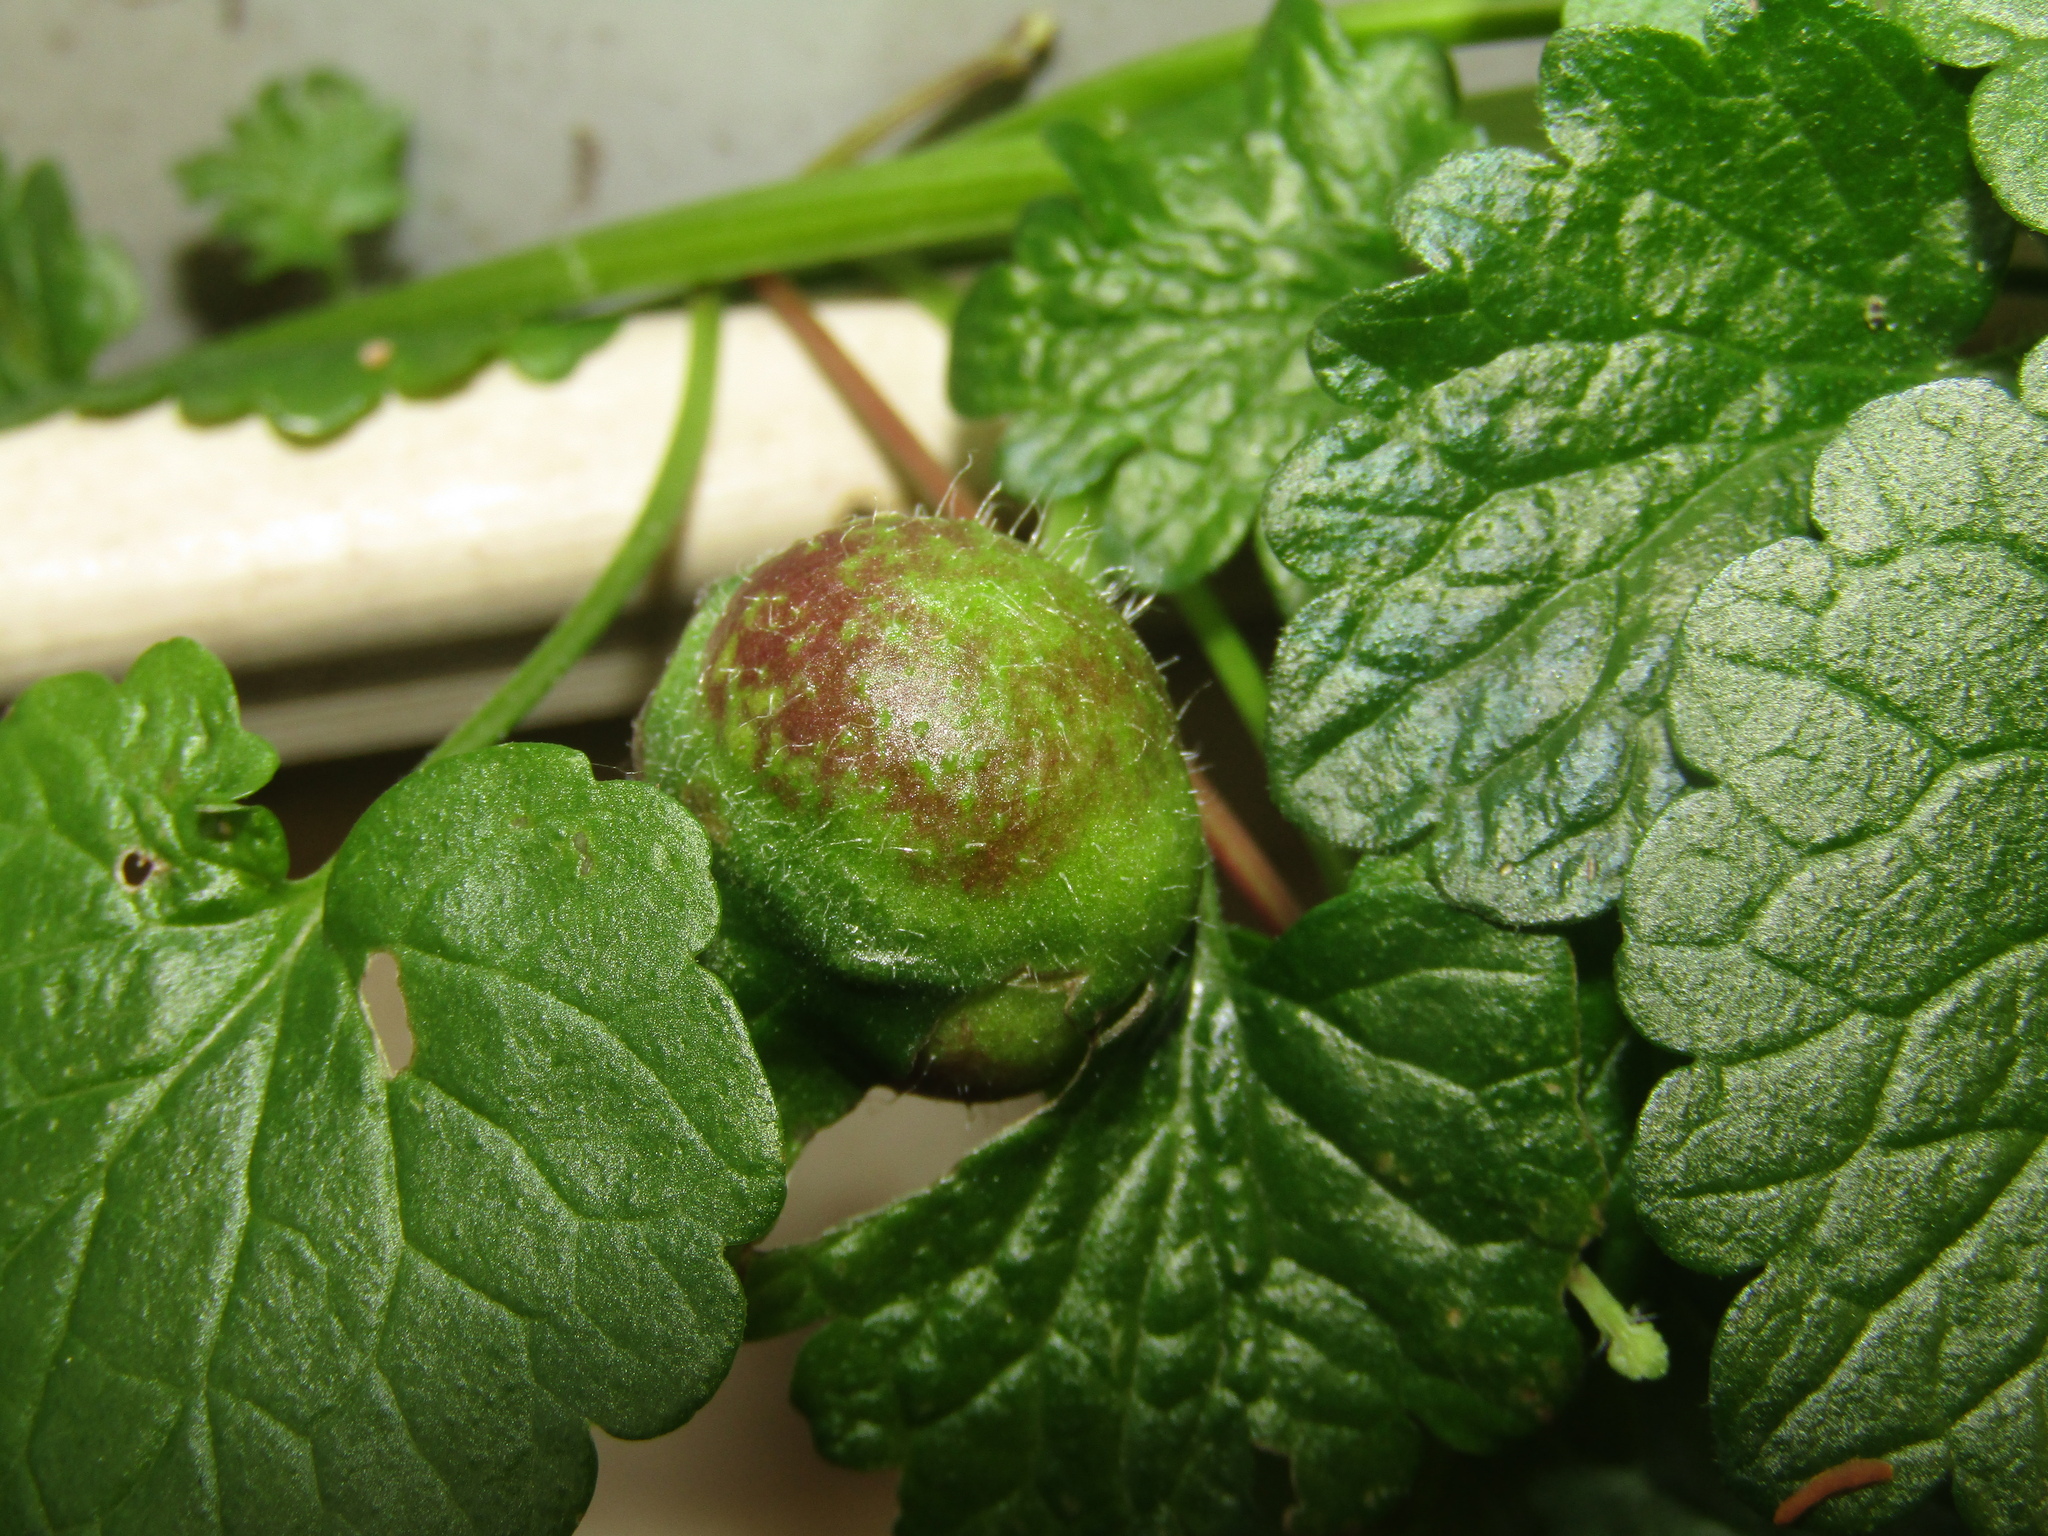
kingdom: Animalia
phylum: Arthropoda
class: Insecta
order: Hymenoptera
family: Cynipidae
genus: Liposthenes
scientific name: Liposthenes glechomae
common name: Gall wasp
